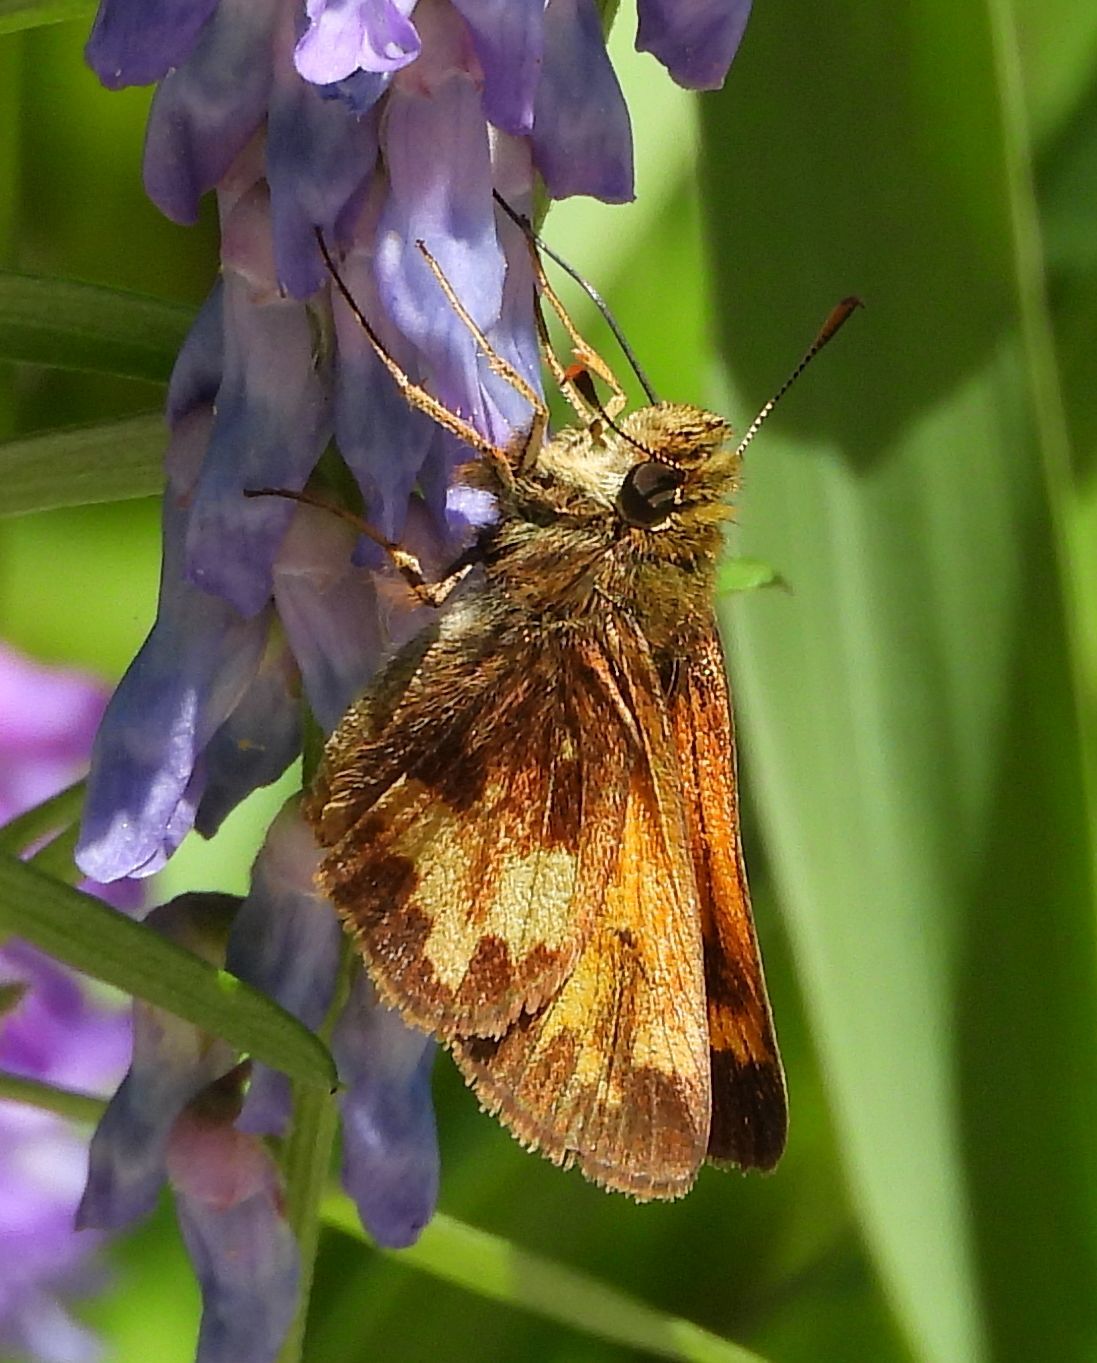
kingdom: Animalia
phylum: Arthropoda
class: Insecta
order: Lepidoptera
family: Hesperiidae
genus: Lon
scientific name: Lon hobomok
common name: Hobomok skipper
